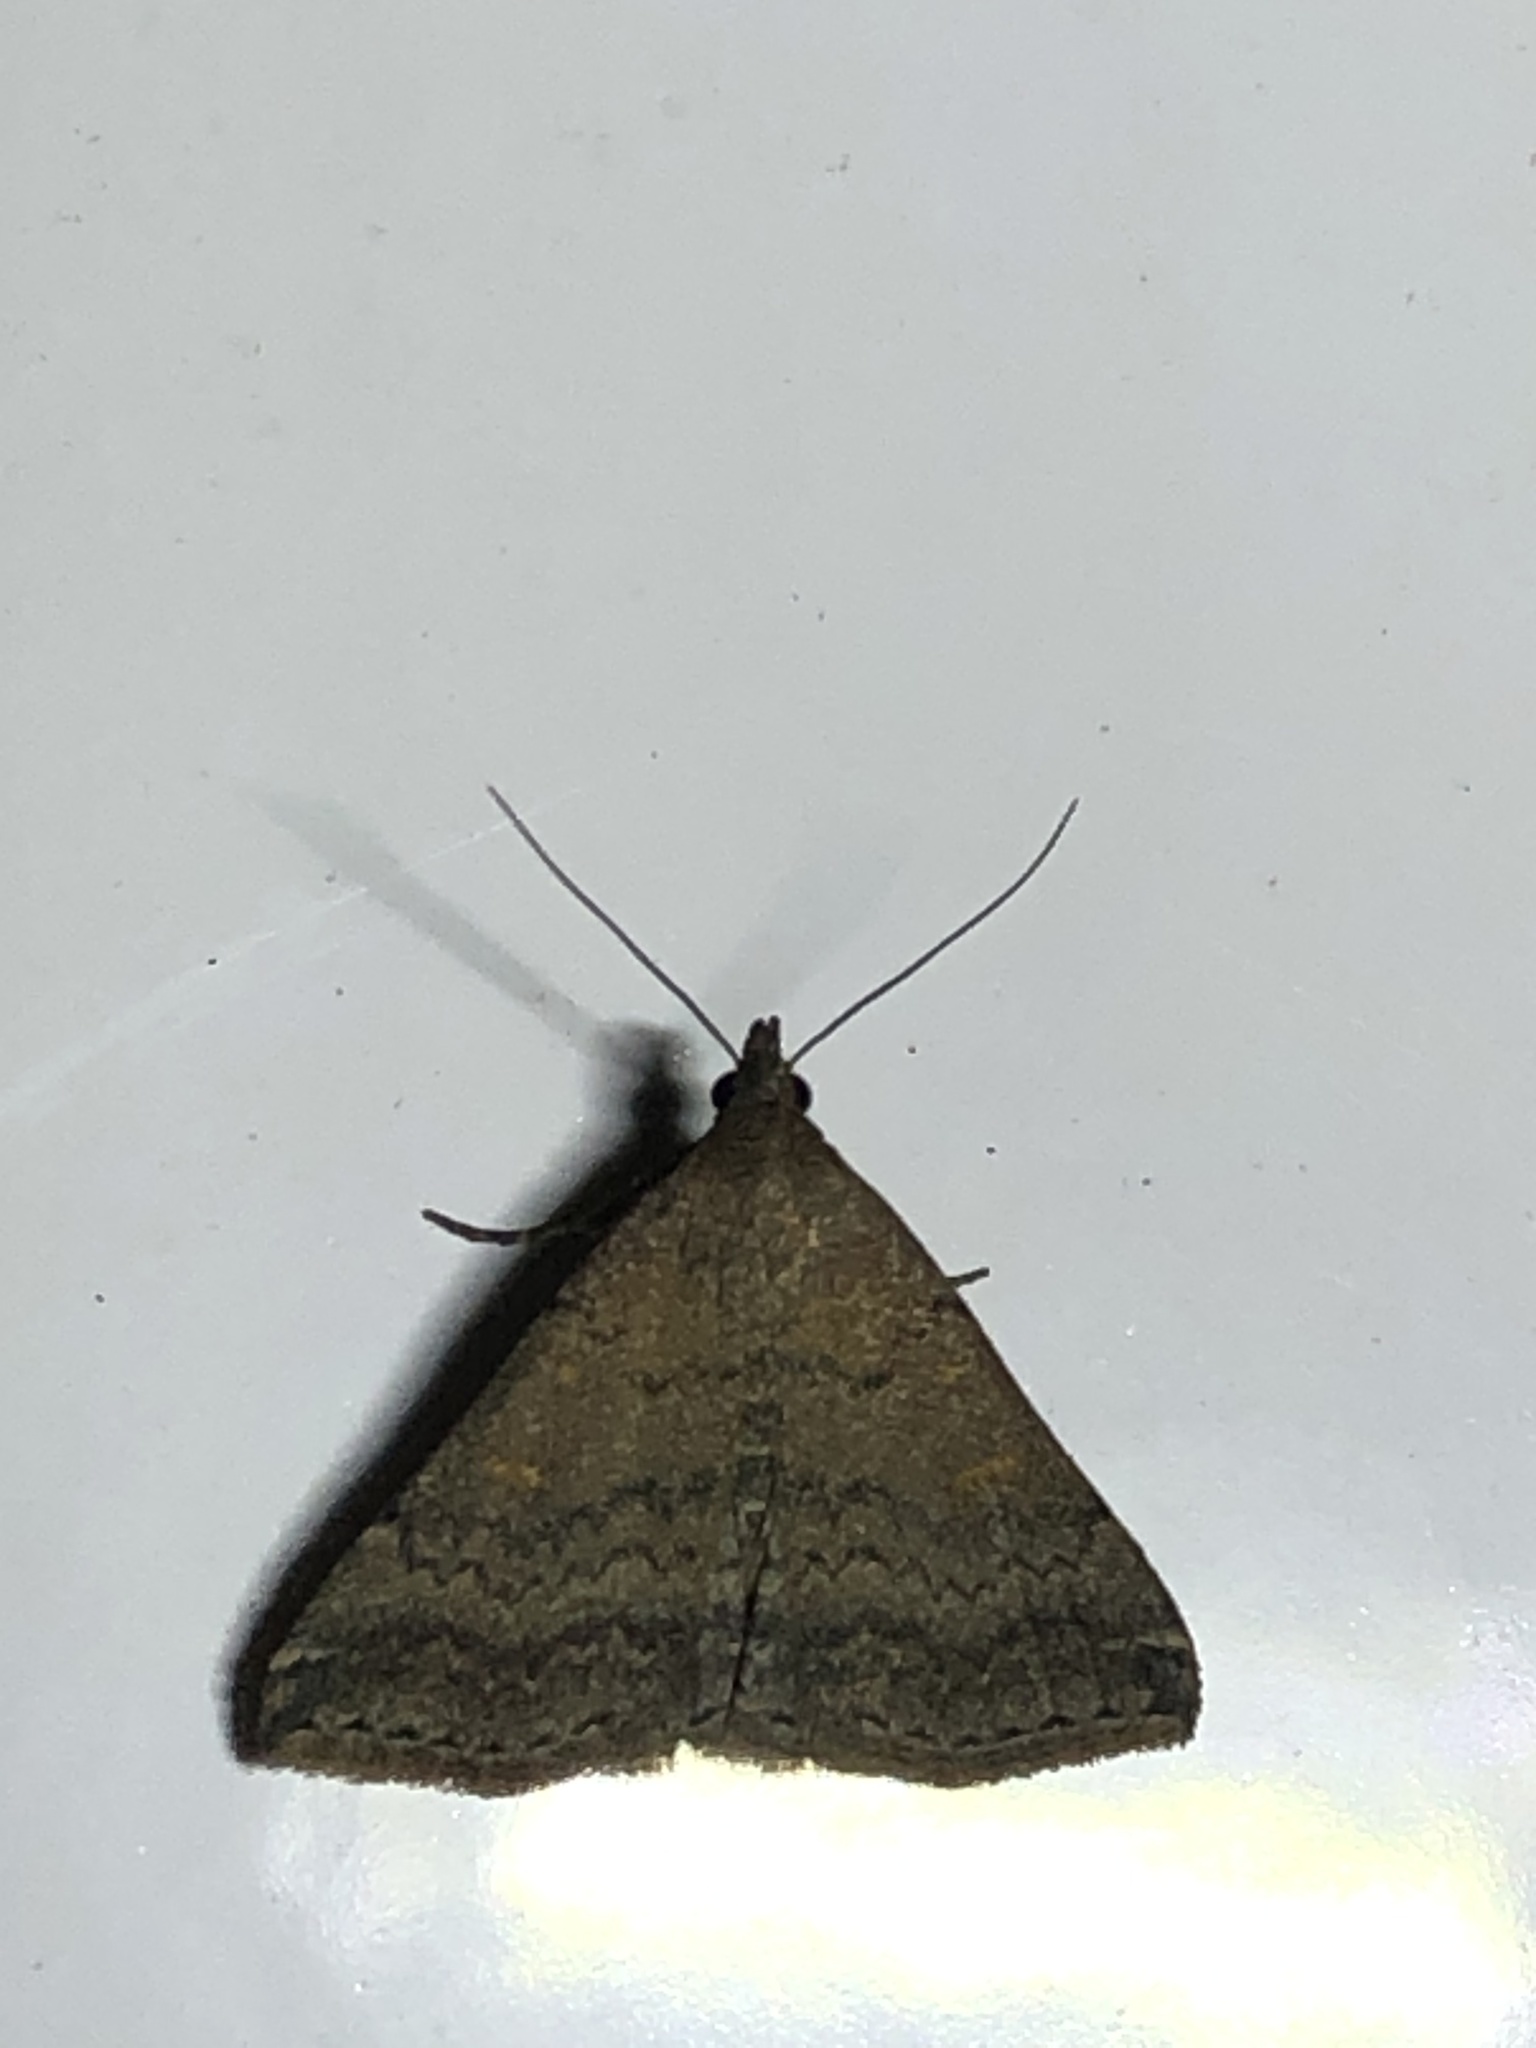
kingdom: Animalia
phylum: Arthropoda
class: Insecta
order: Lepidoptera
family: Erebidae
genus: Tetanolita
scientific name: Tetanolita floridana
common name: Florida tetanolita moth
